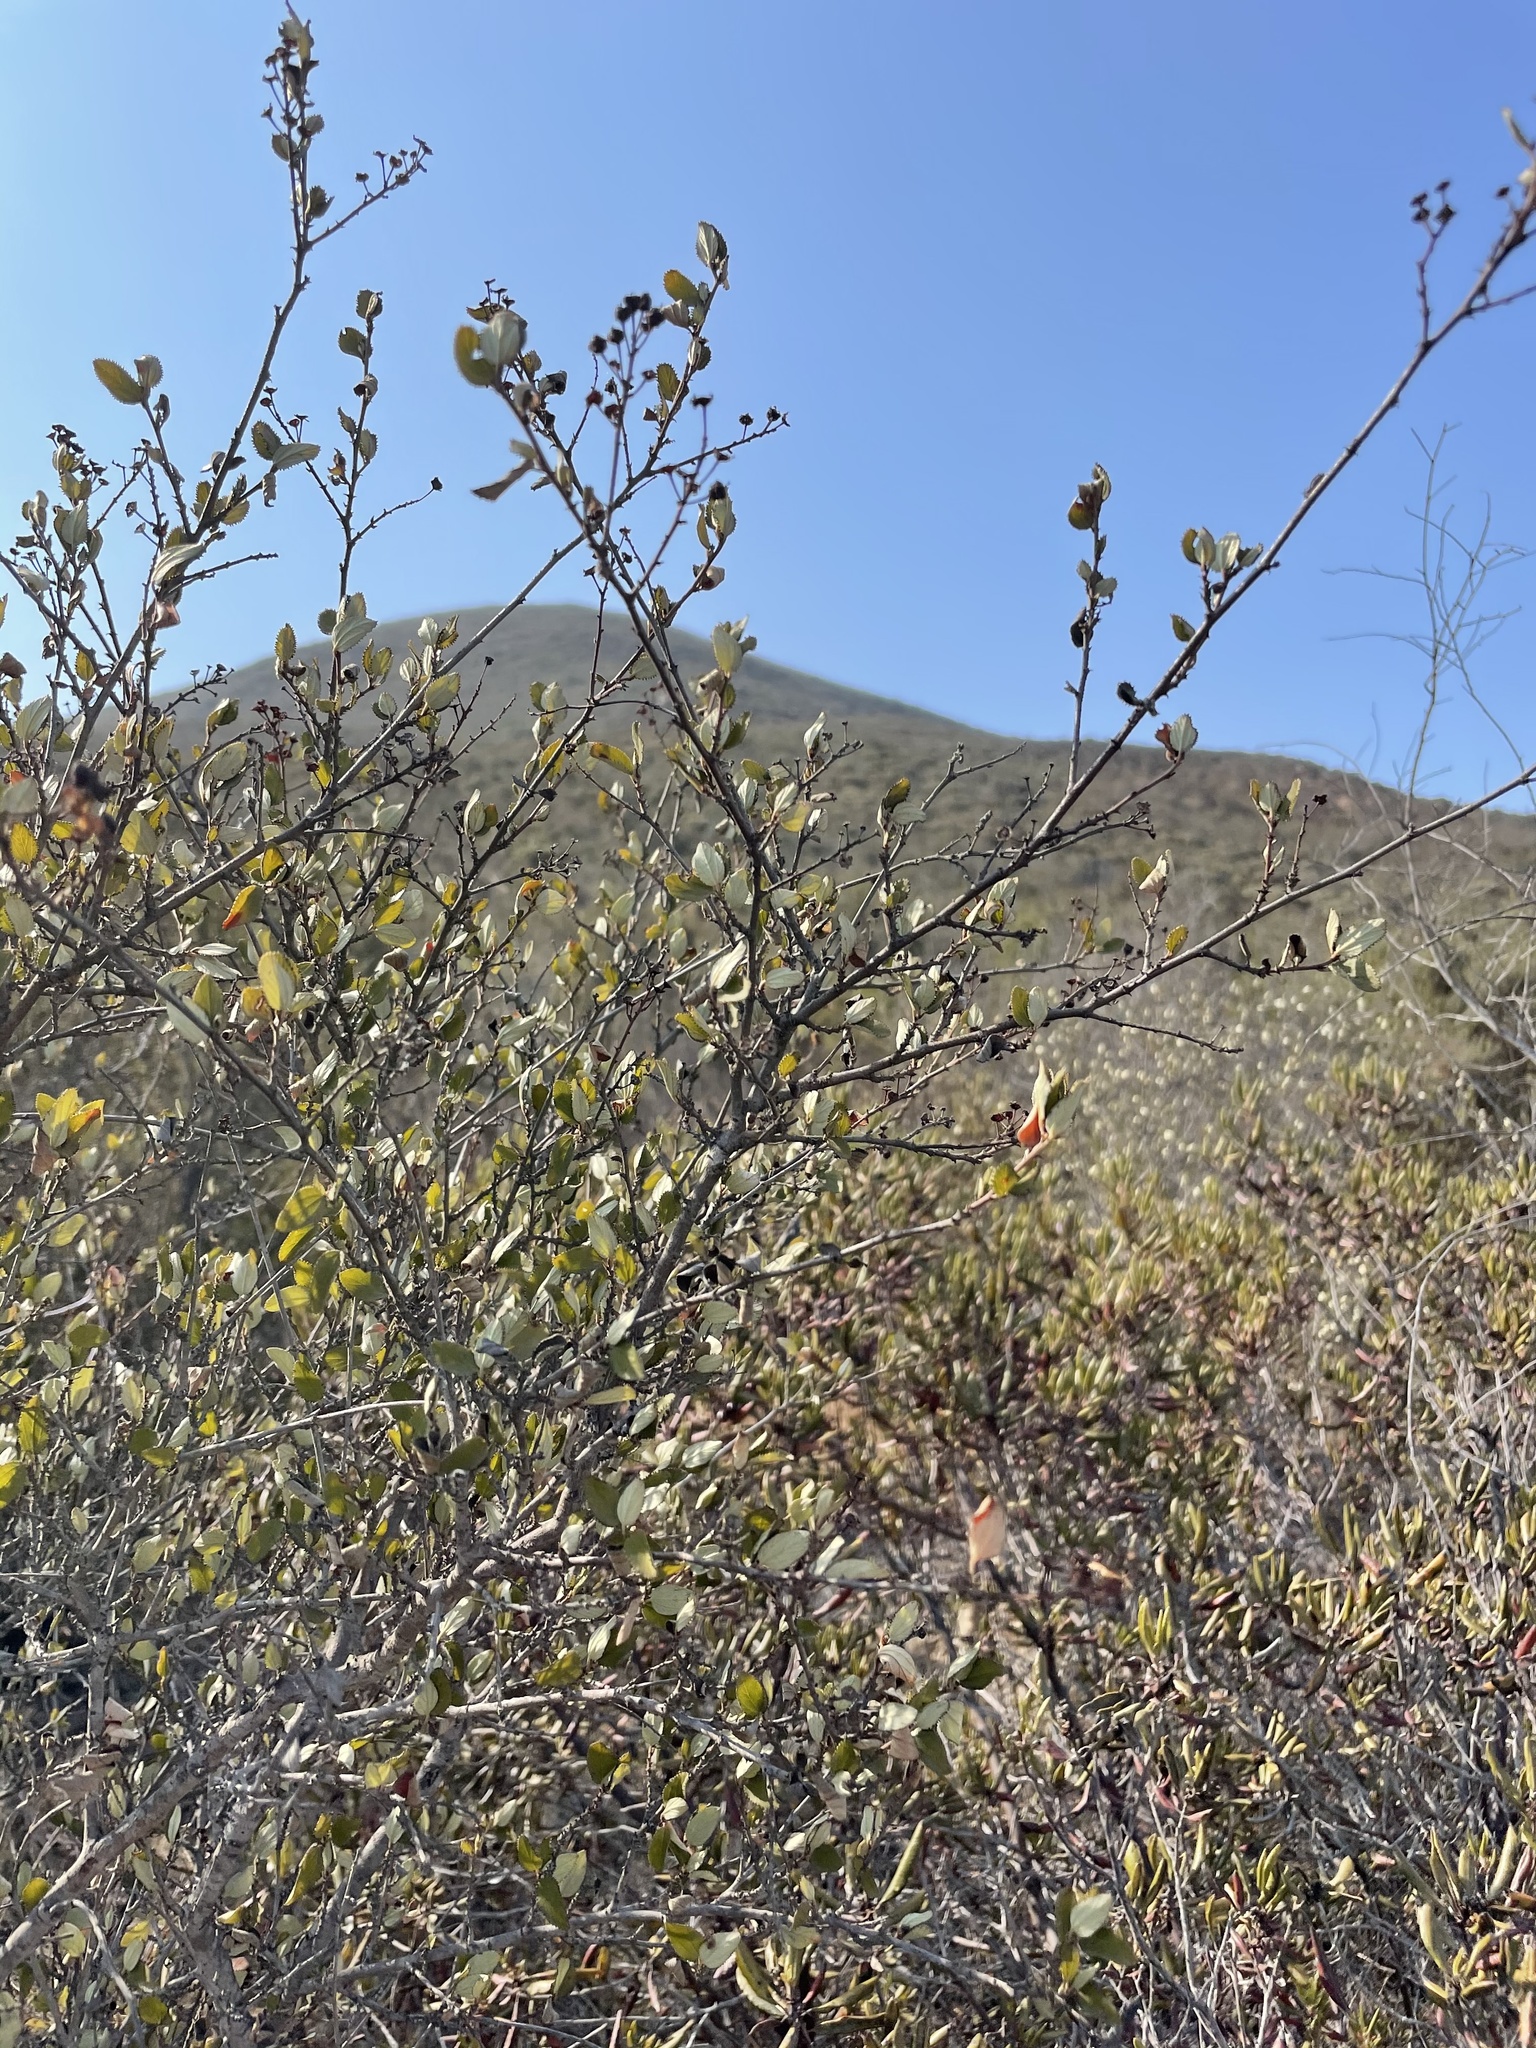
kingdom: Plantae
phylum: Tracheophyta
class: Magnoliopsida
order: Rosales
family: Rhamnaceae
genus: Ceanothus
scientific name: Ceanothus tomentosus
